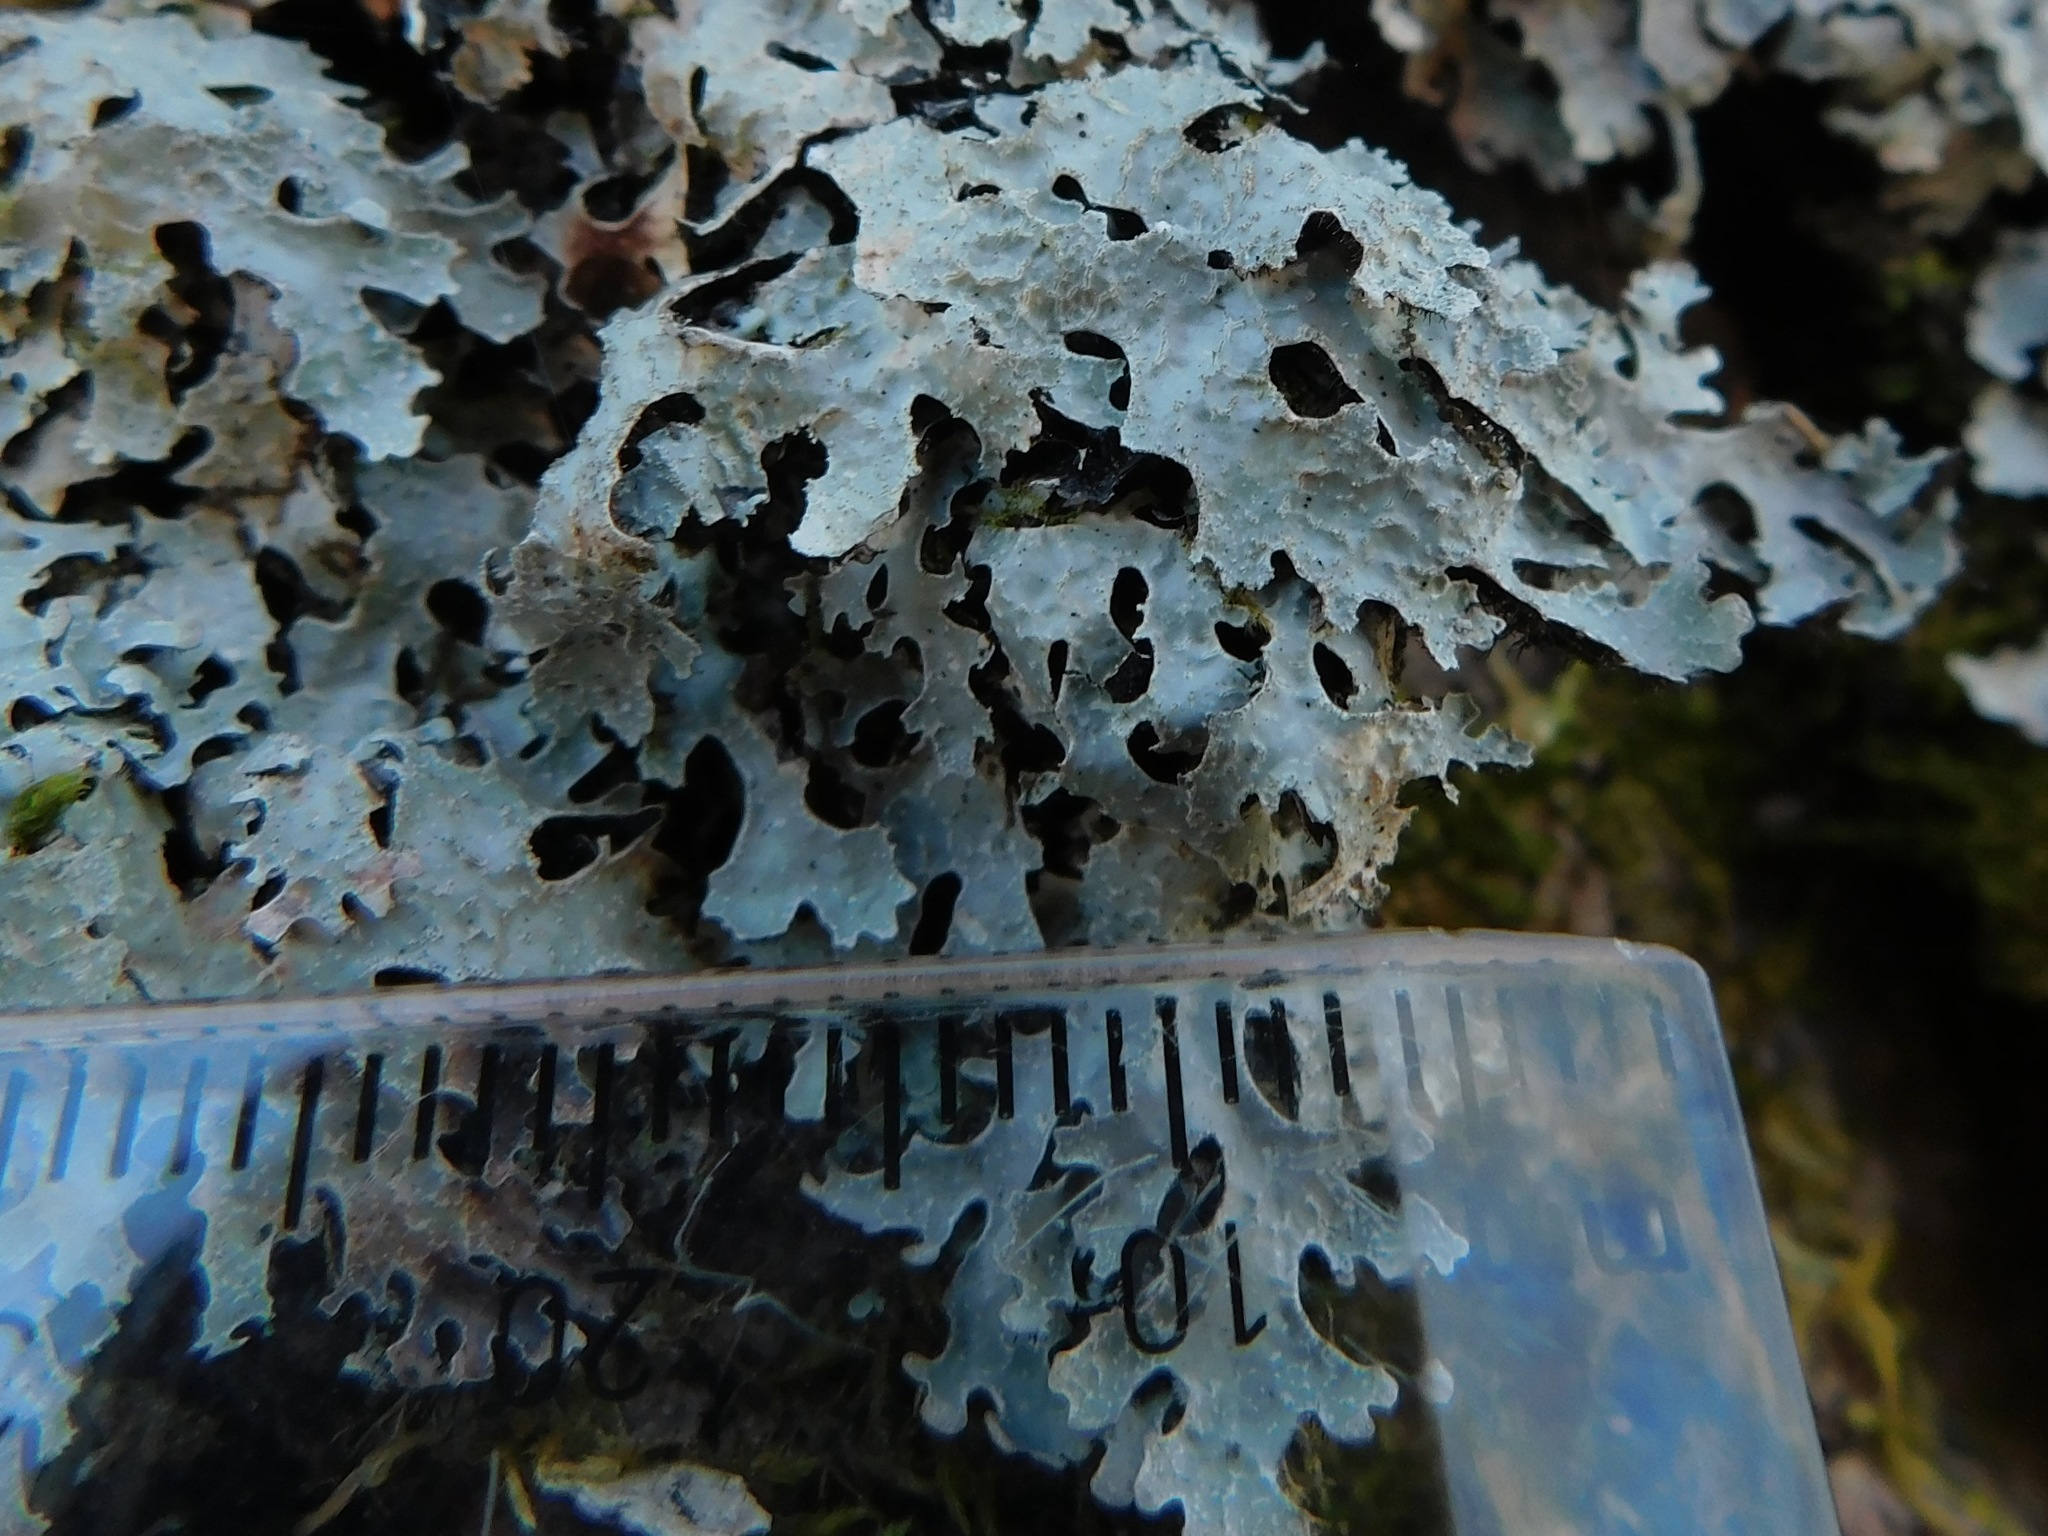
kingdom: Fungi
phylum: Ascomycota
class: Lecanoromycetes
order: Lecanorales
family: Parmeliaceae
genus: Parmelia
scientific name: Parmelia sulcata
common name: Netted shield lichen
